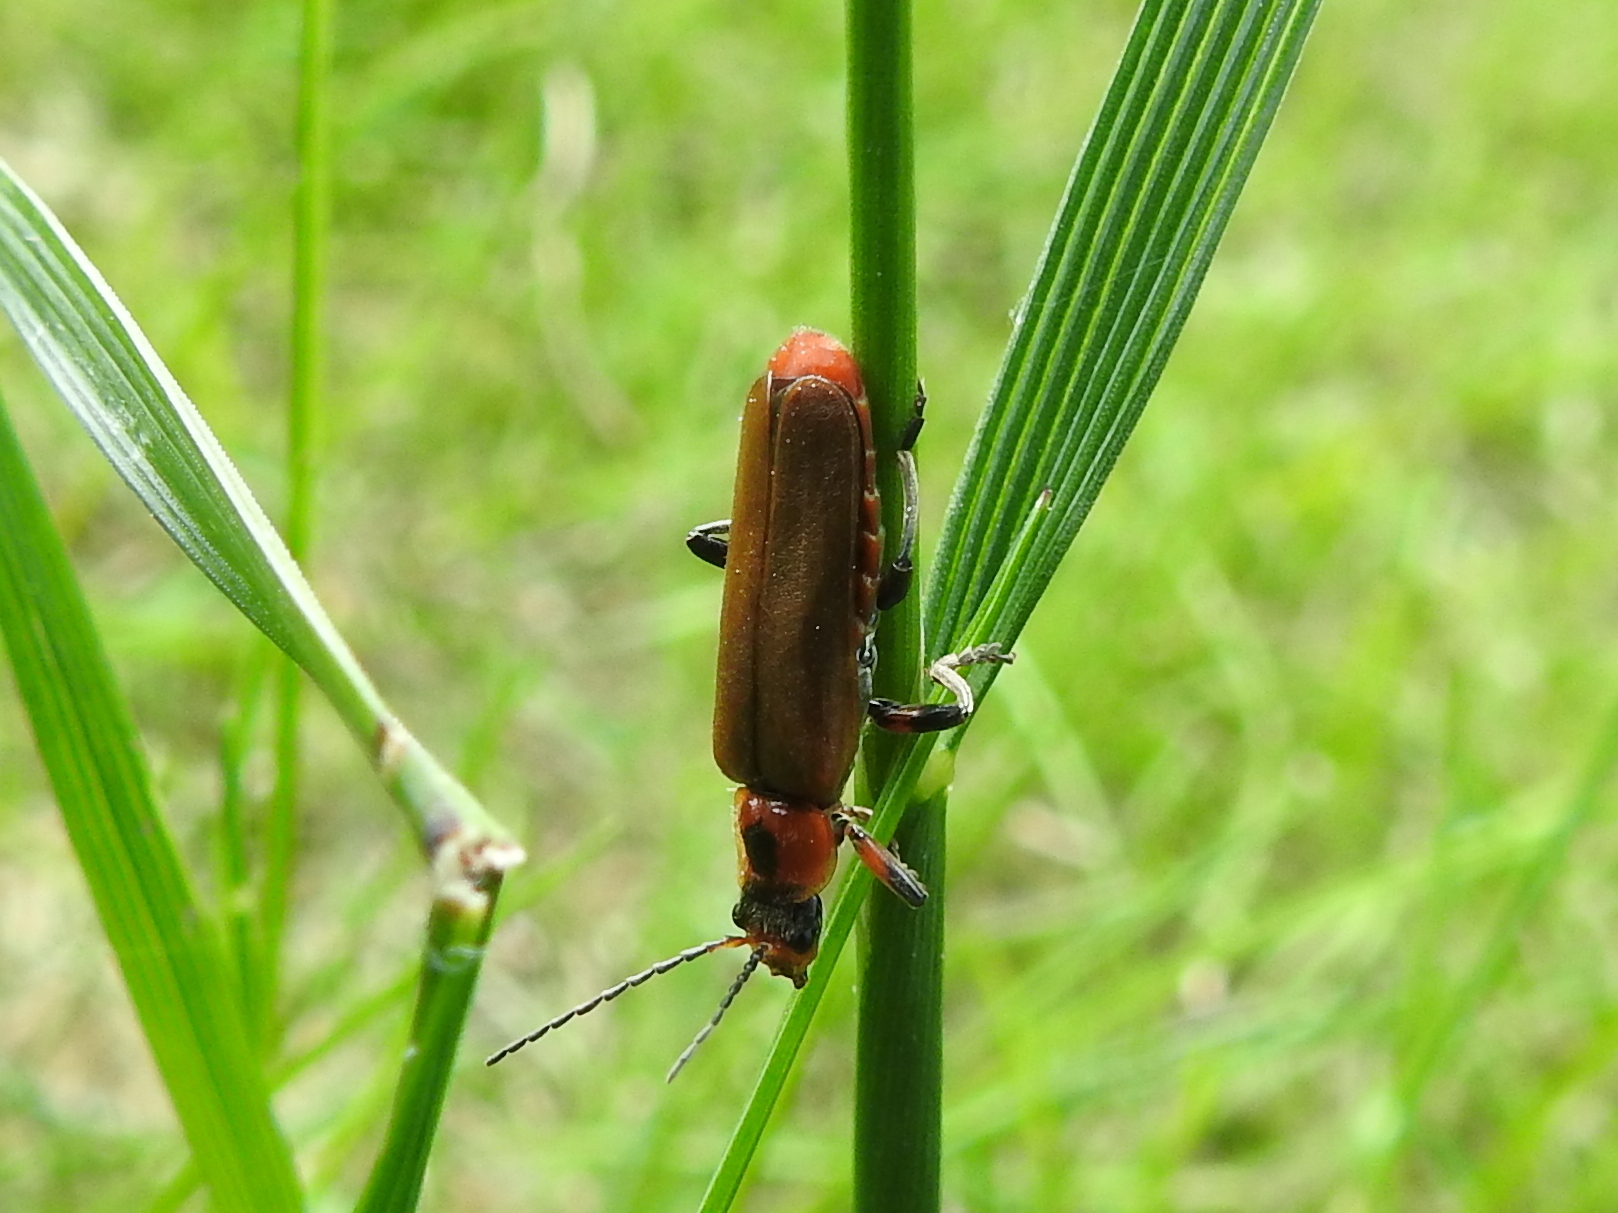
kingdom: Animalia
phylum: Arthropoda
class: Insecta
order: Coleoptera
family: Cantharidae
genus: Cantharis
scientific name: Cantharis quadripunctata
